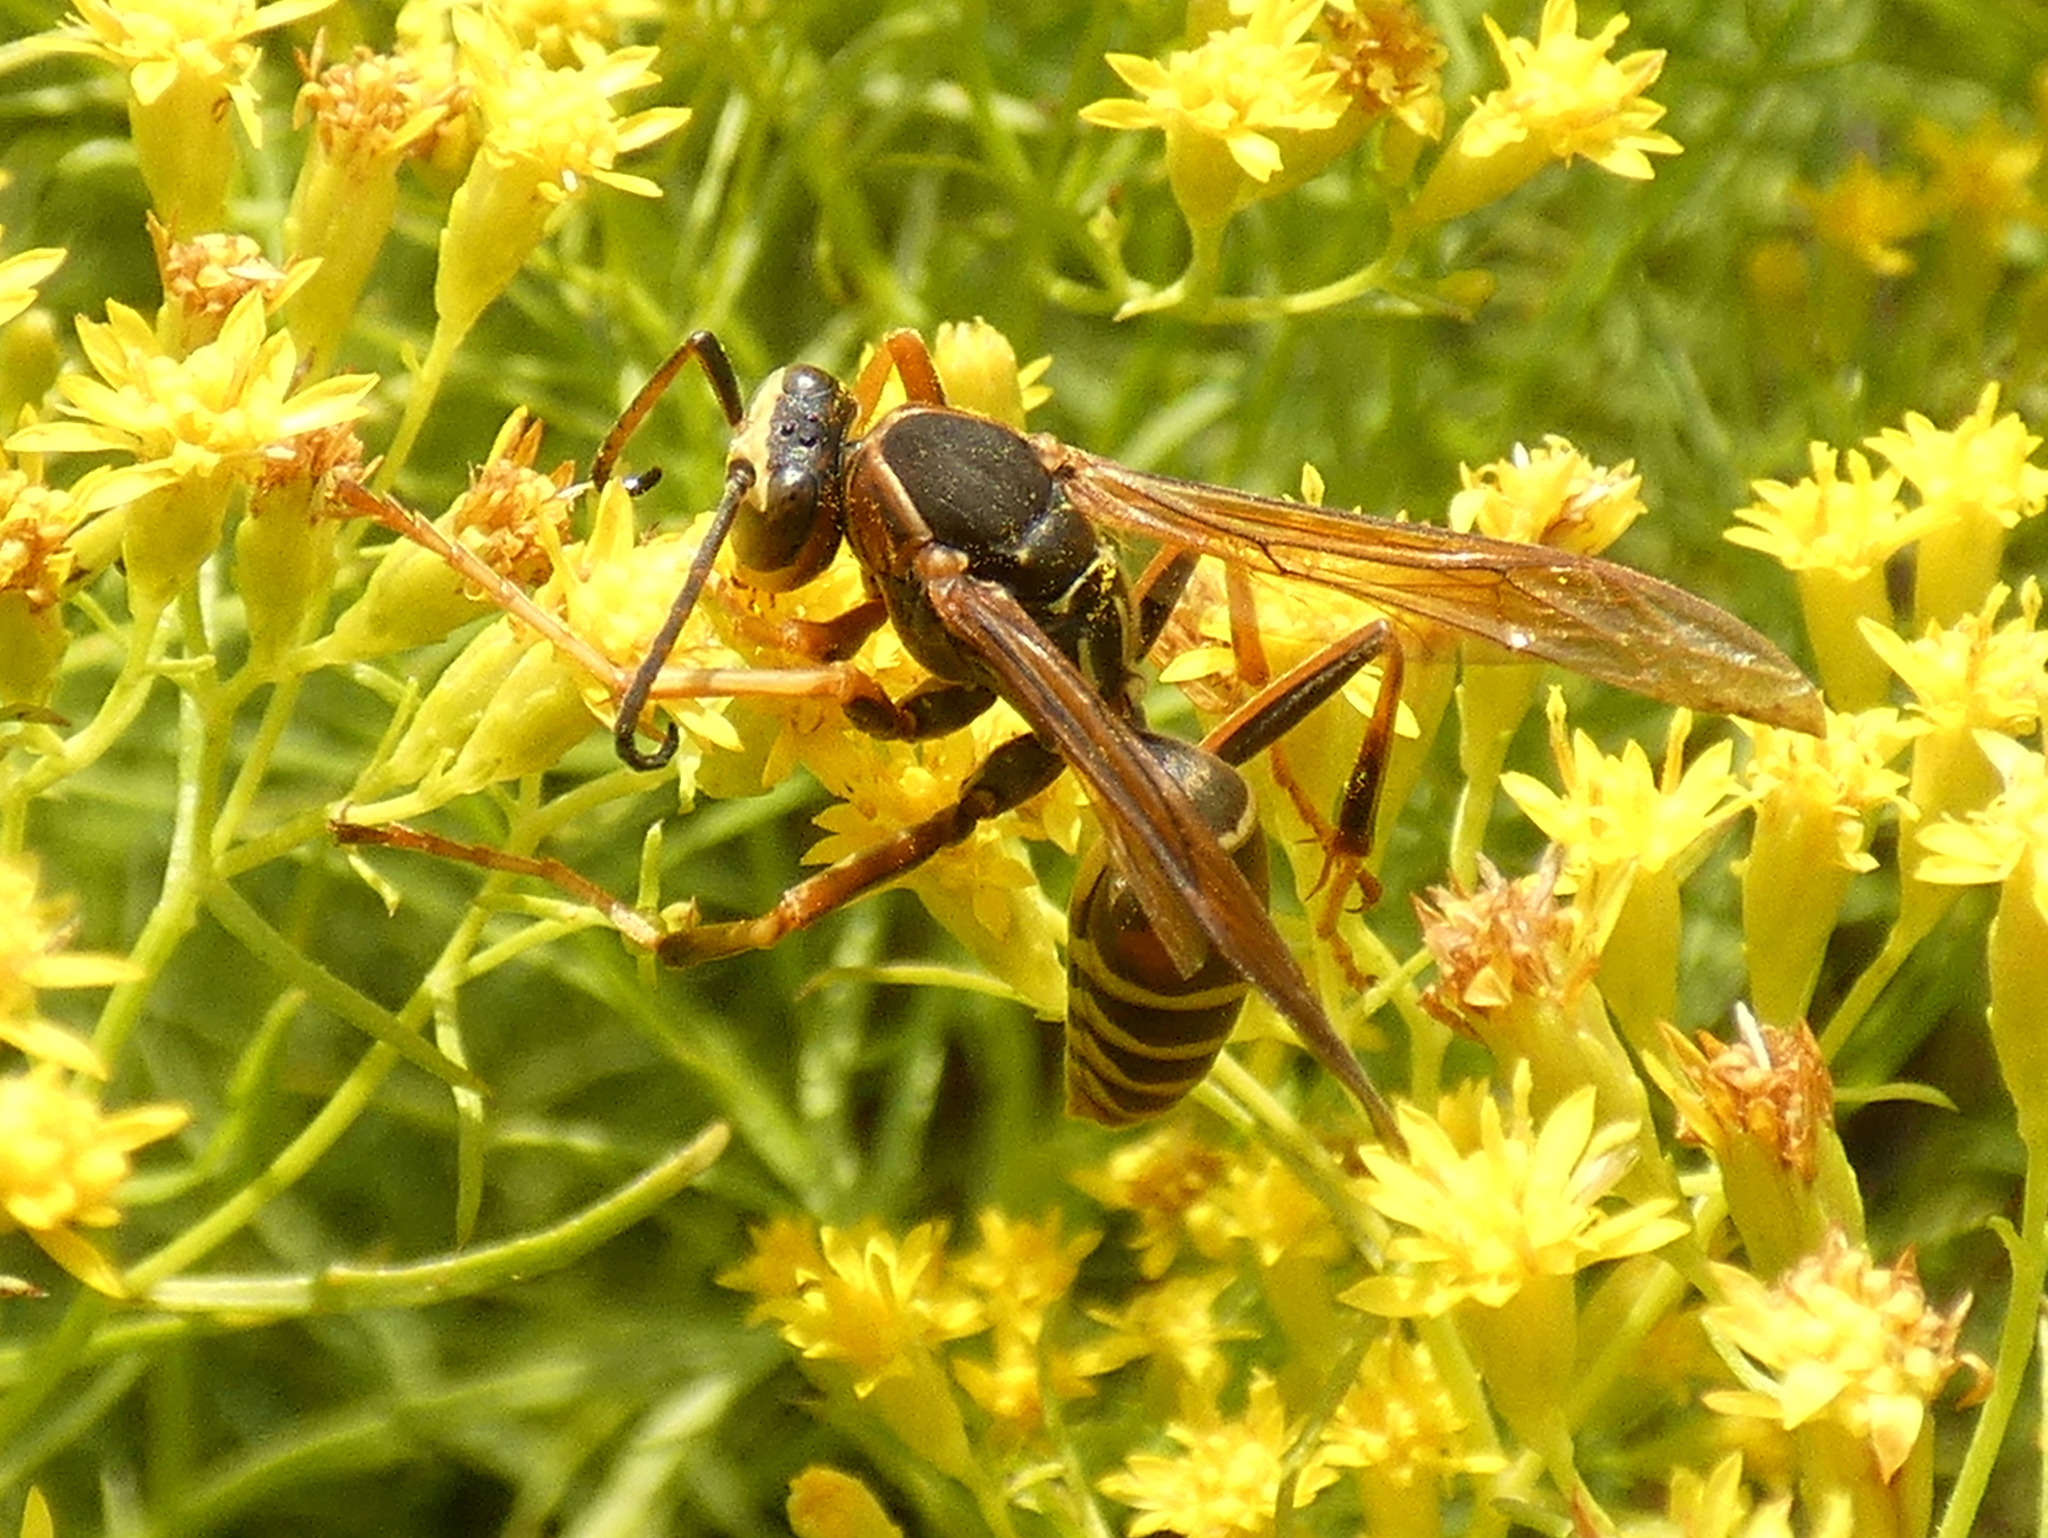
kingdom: Animalia
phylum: Arthropoda
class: Insecta
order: Hymenoptera
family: Eumenidae
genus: Polistes
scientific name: Polistes fuscatus
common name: Dark paper wasp
